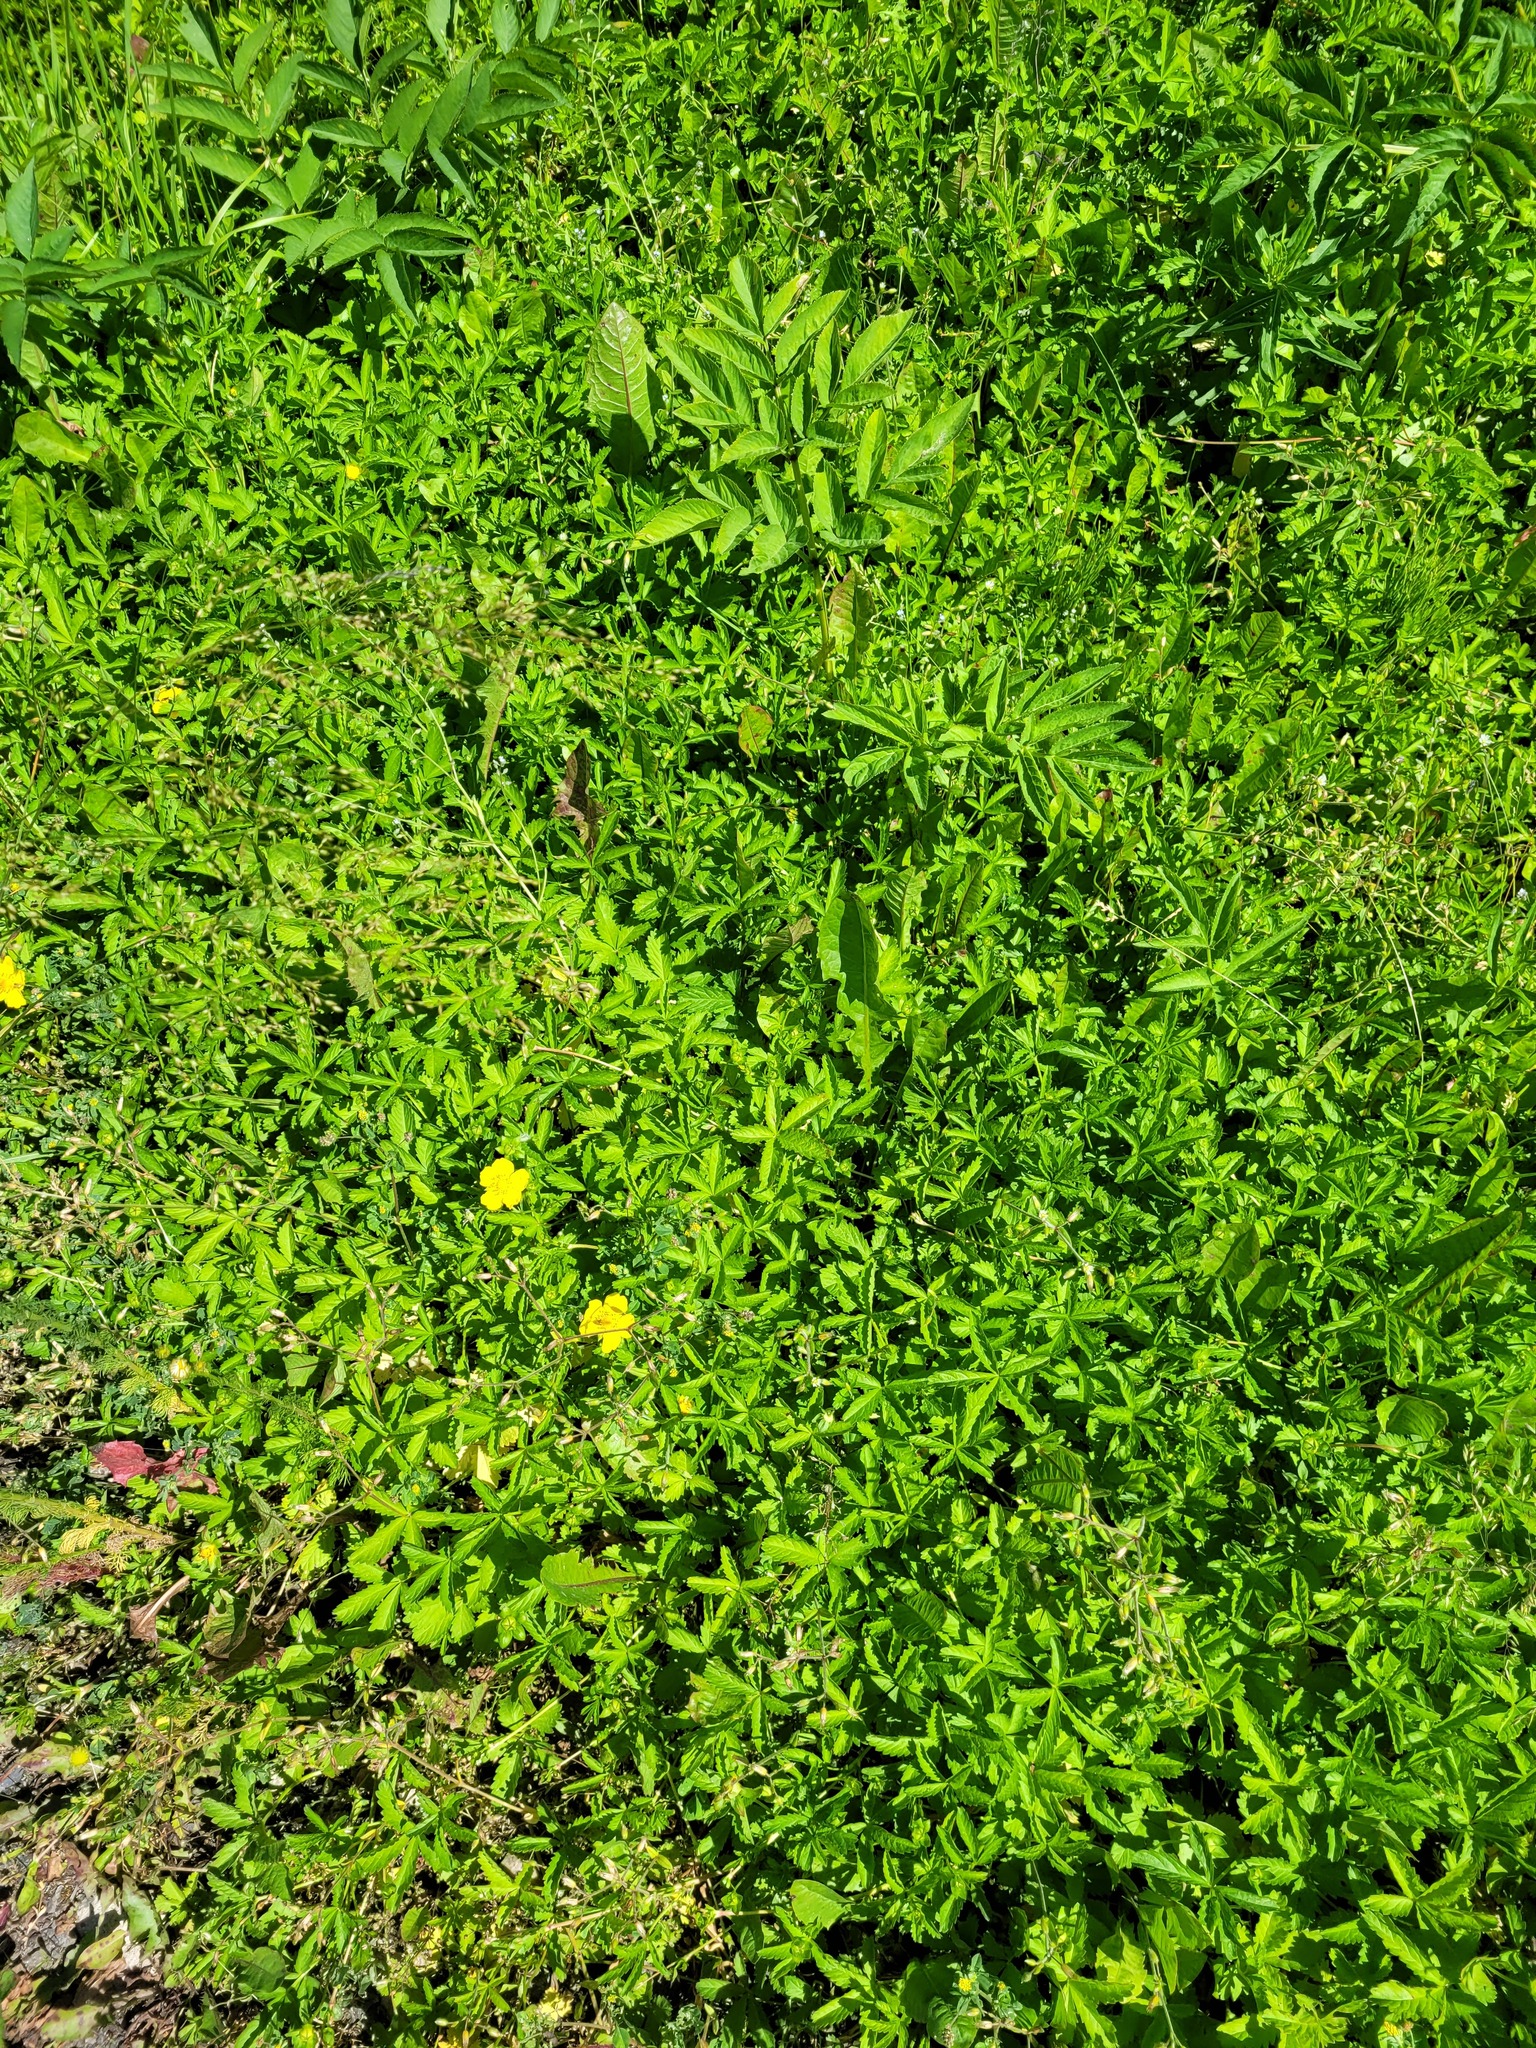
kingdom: Plantae
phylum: Tracheophyta
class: Magnoliopsida
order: Rosales
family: Rosaceae
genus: Potentilla
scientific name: Potentilla reptans
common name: Creeping cinquefoil
